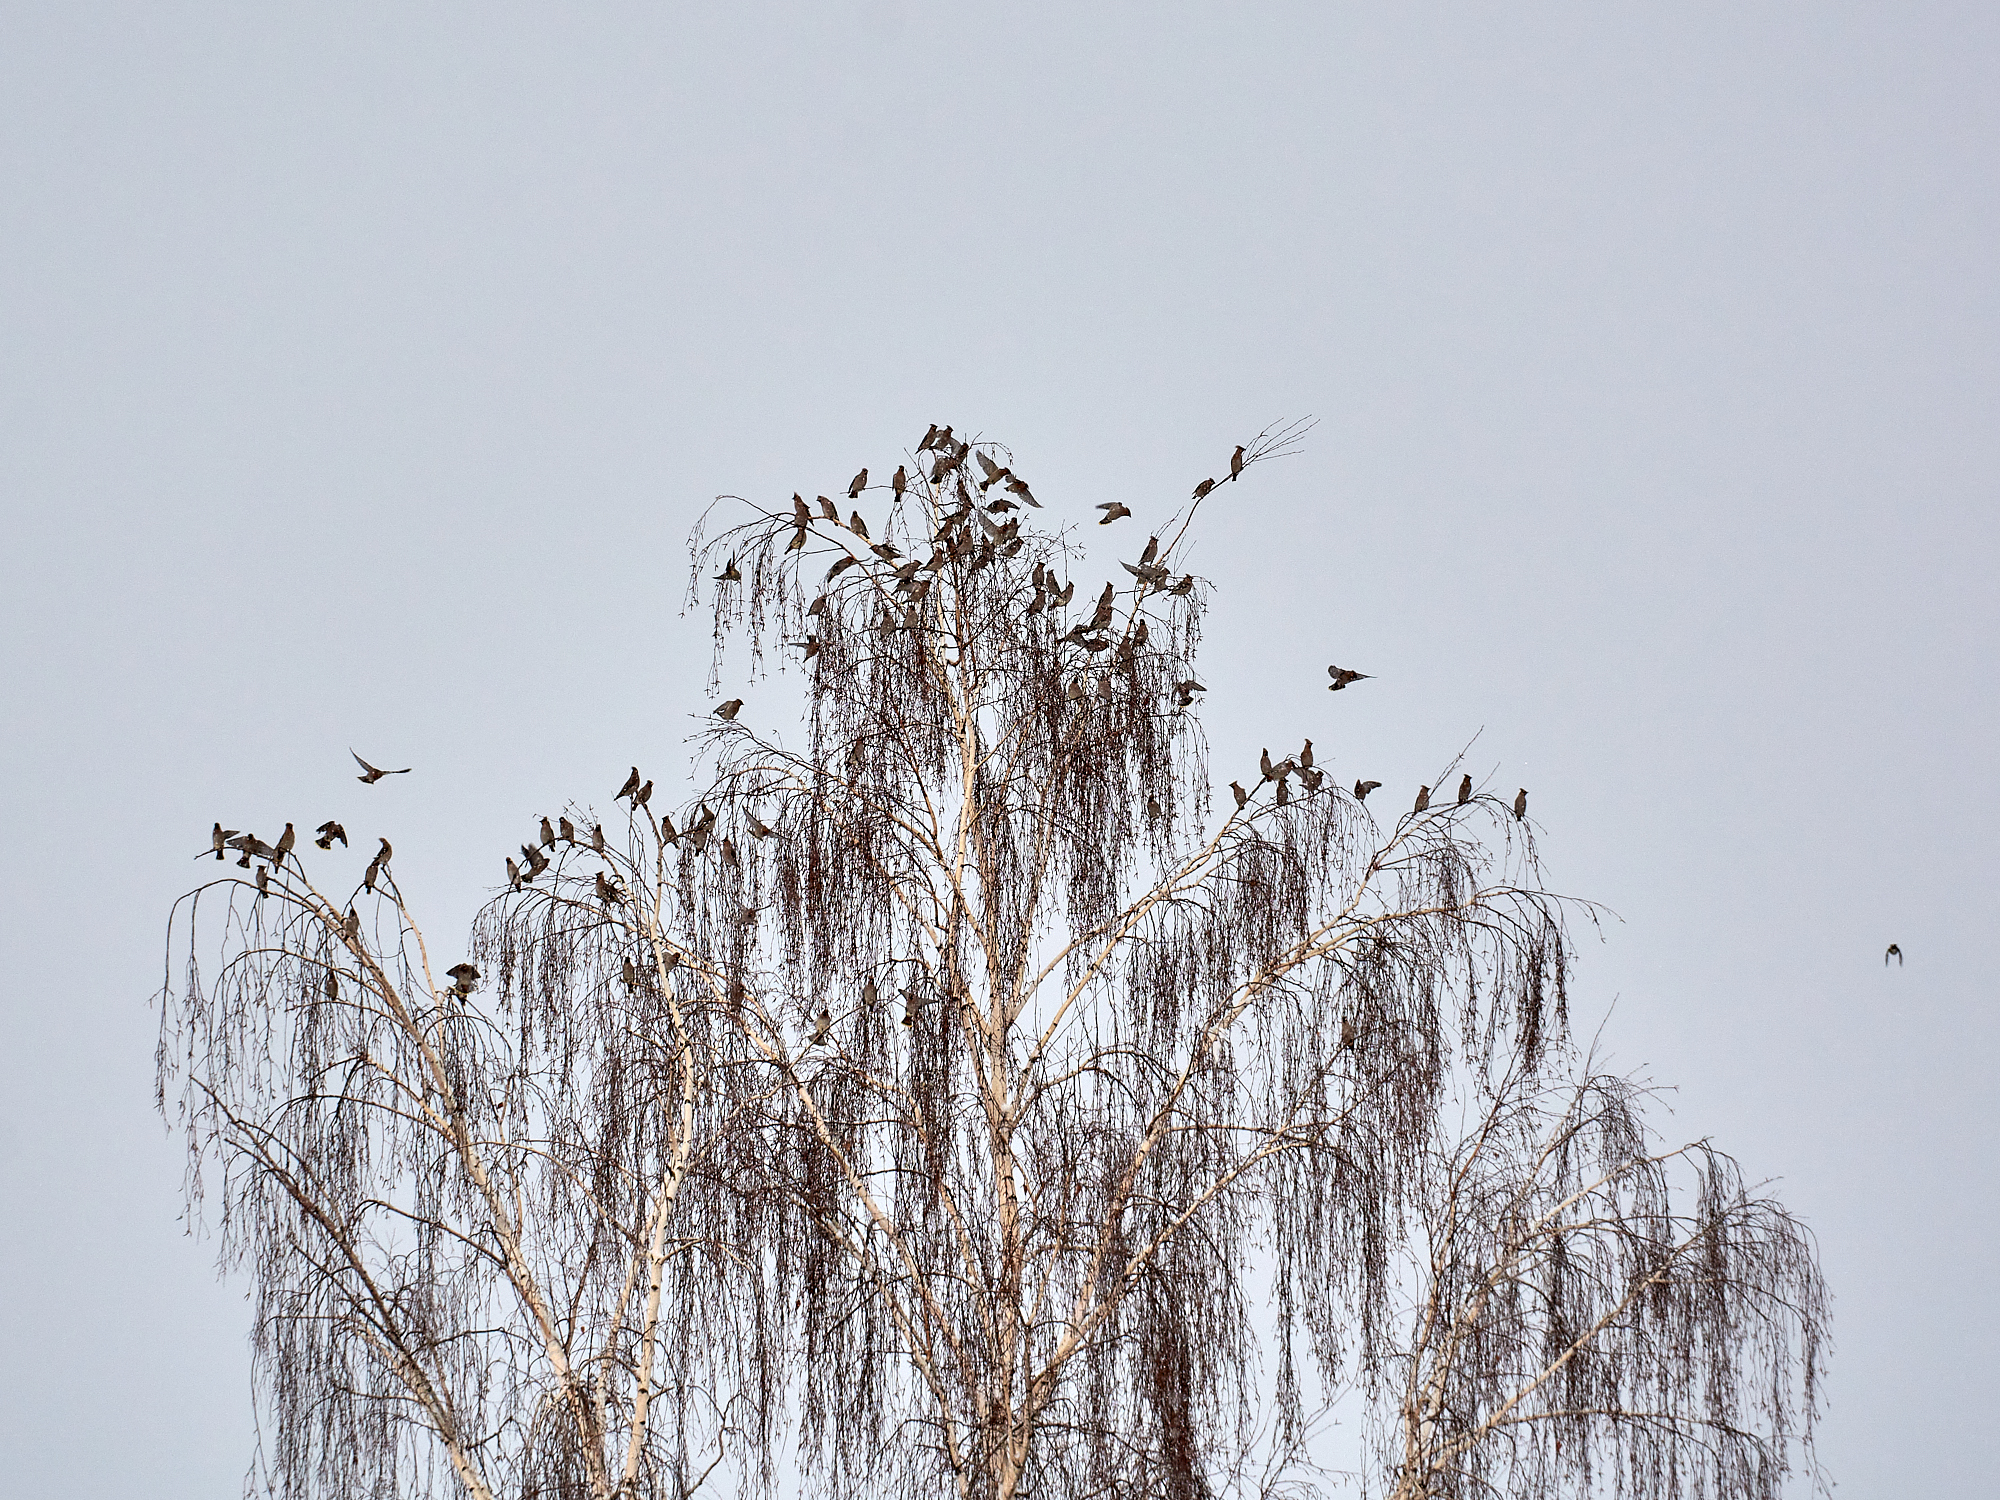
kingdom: Animalia
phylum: Chordata
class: Aves
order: Passeriformes
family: Bombycillidae
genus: Bombycilla
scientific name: Bombycilla garrulus
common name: Bohemian waxwing
